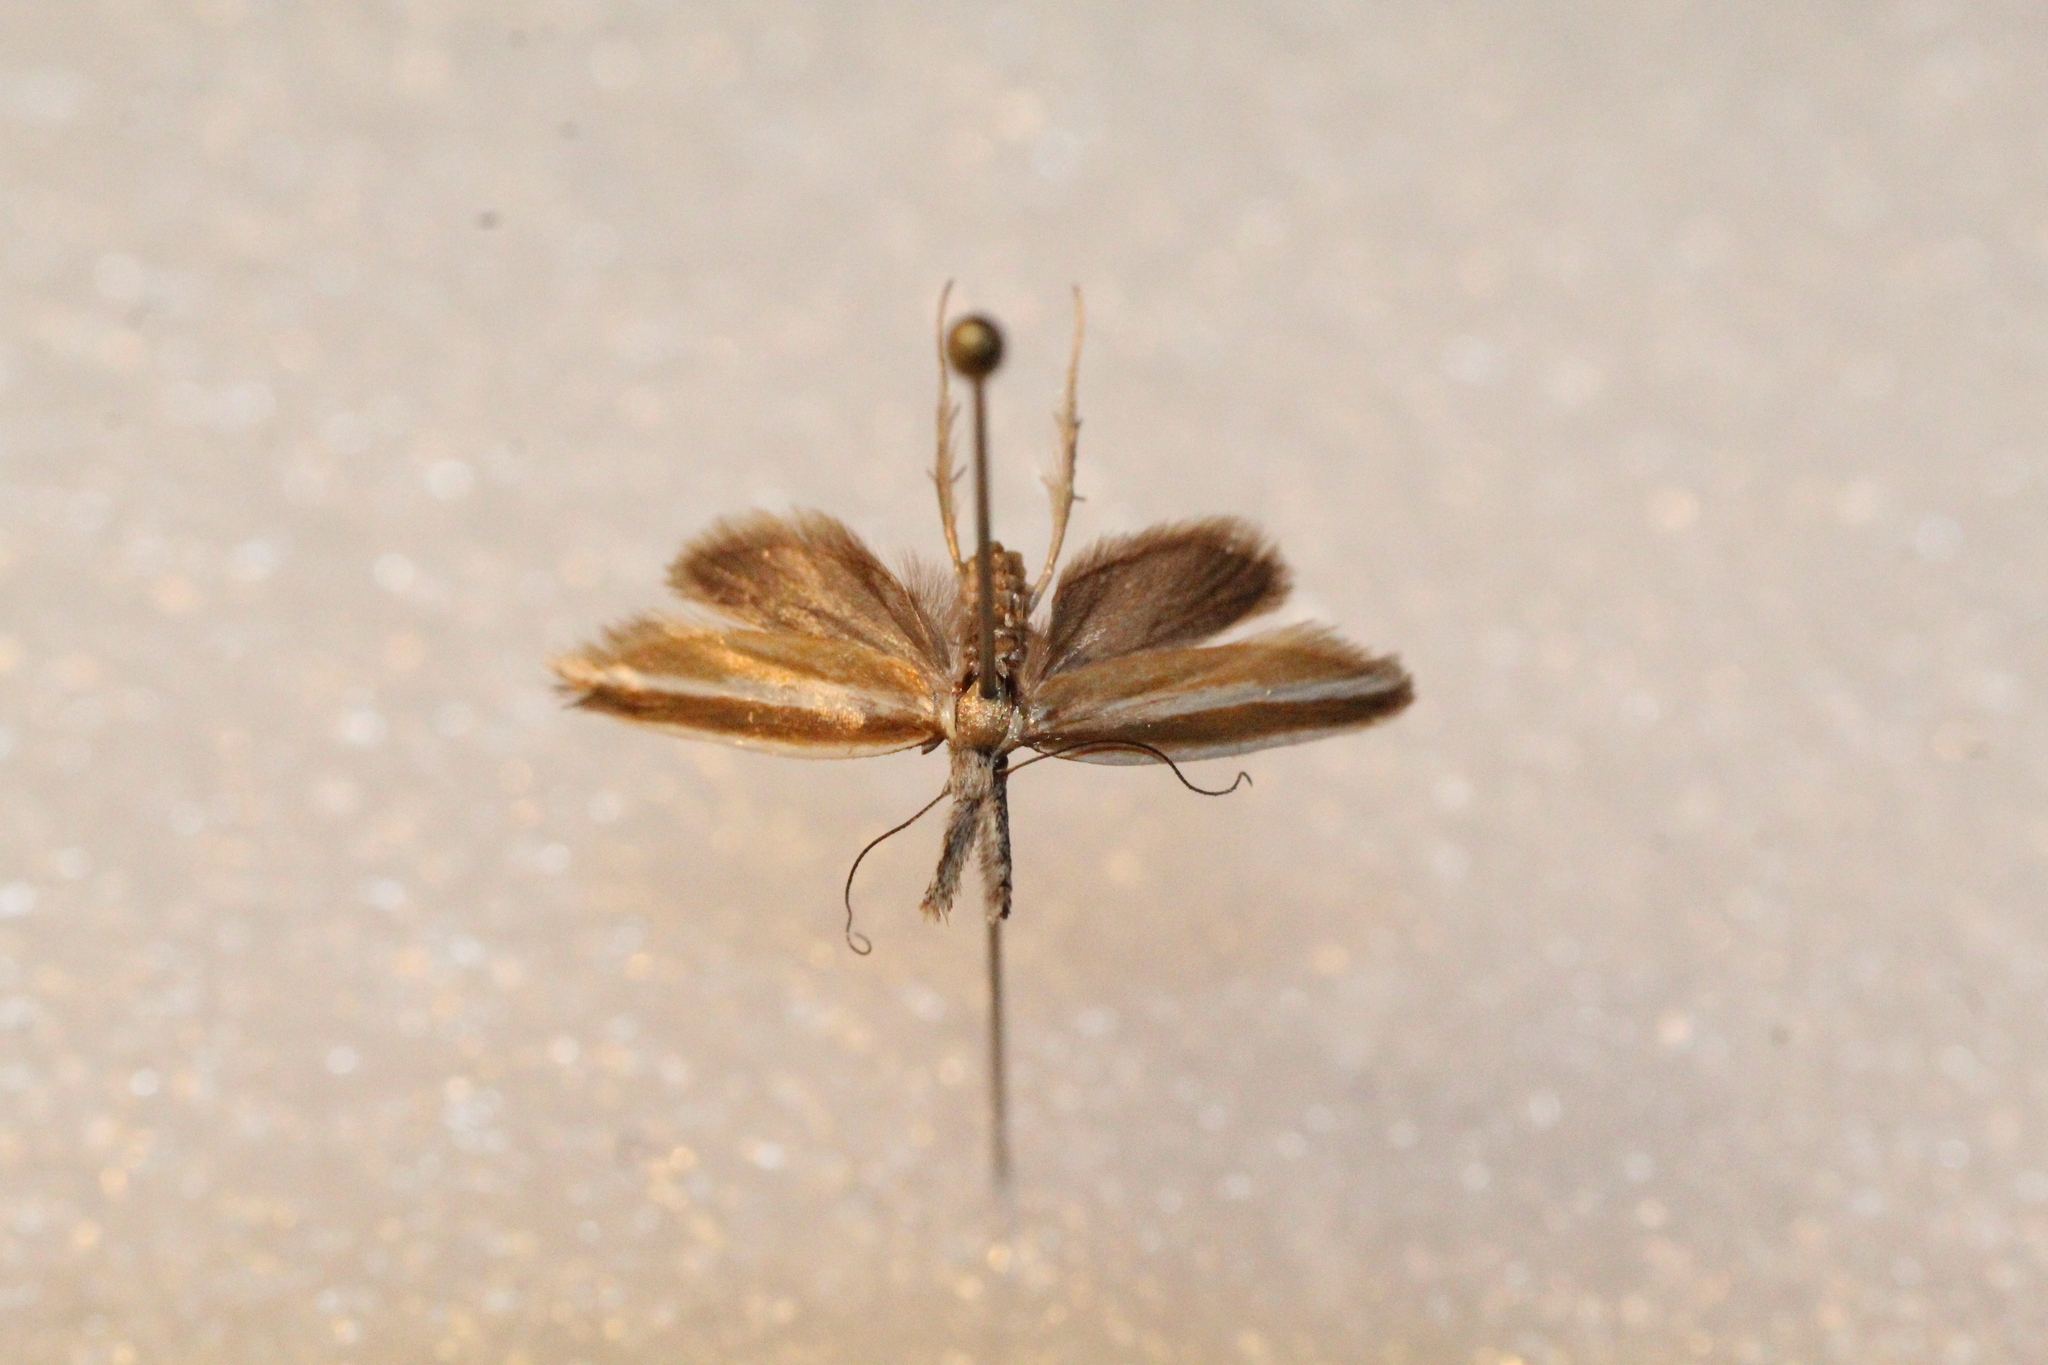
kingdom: Animalia
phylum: Arthropoda
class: Insecta
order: Lepidoptera
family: Oecophoridae
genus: Pleurota
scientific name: Pleurota aristella
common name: Southern streak
